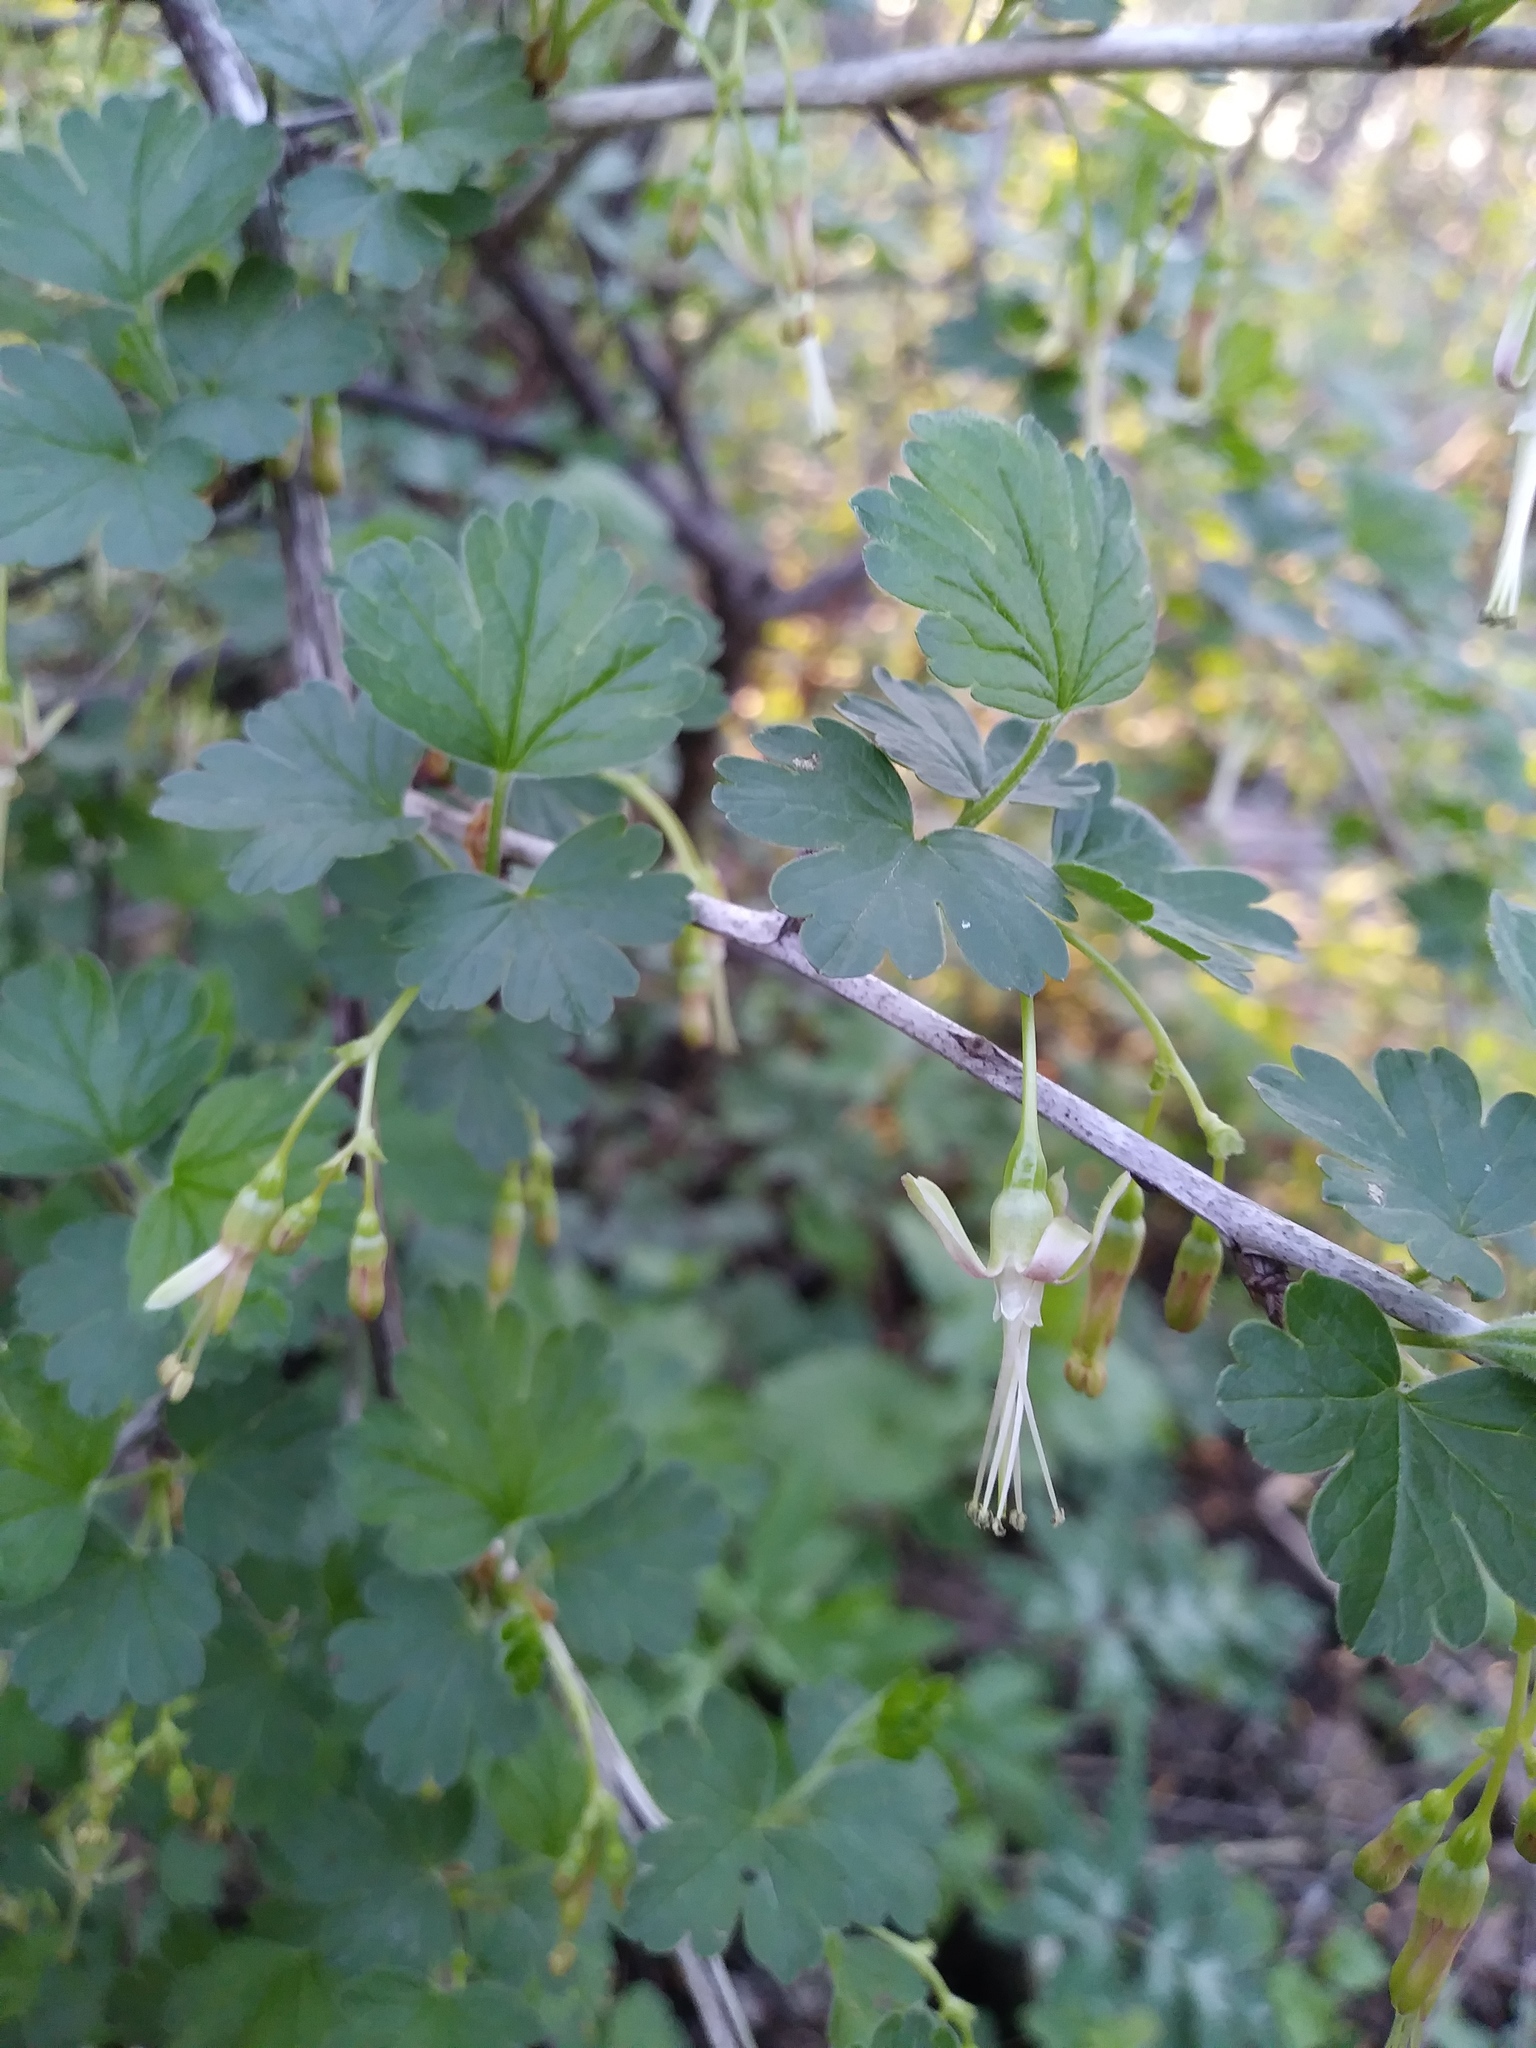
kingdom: Plantae
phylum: Tracheophyta
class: Magnoliopsida
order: Saxifragales
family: Grossulariaceae
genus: Ribes
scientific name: Ribes missouriense
